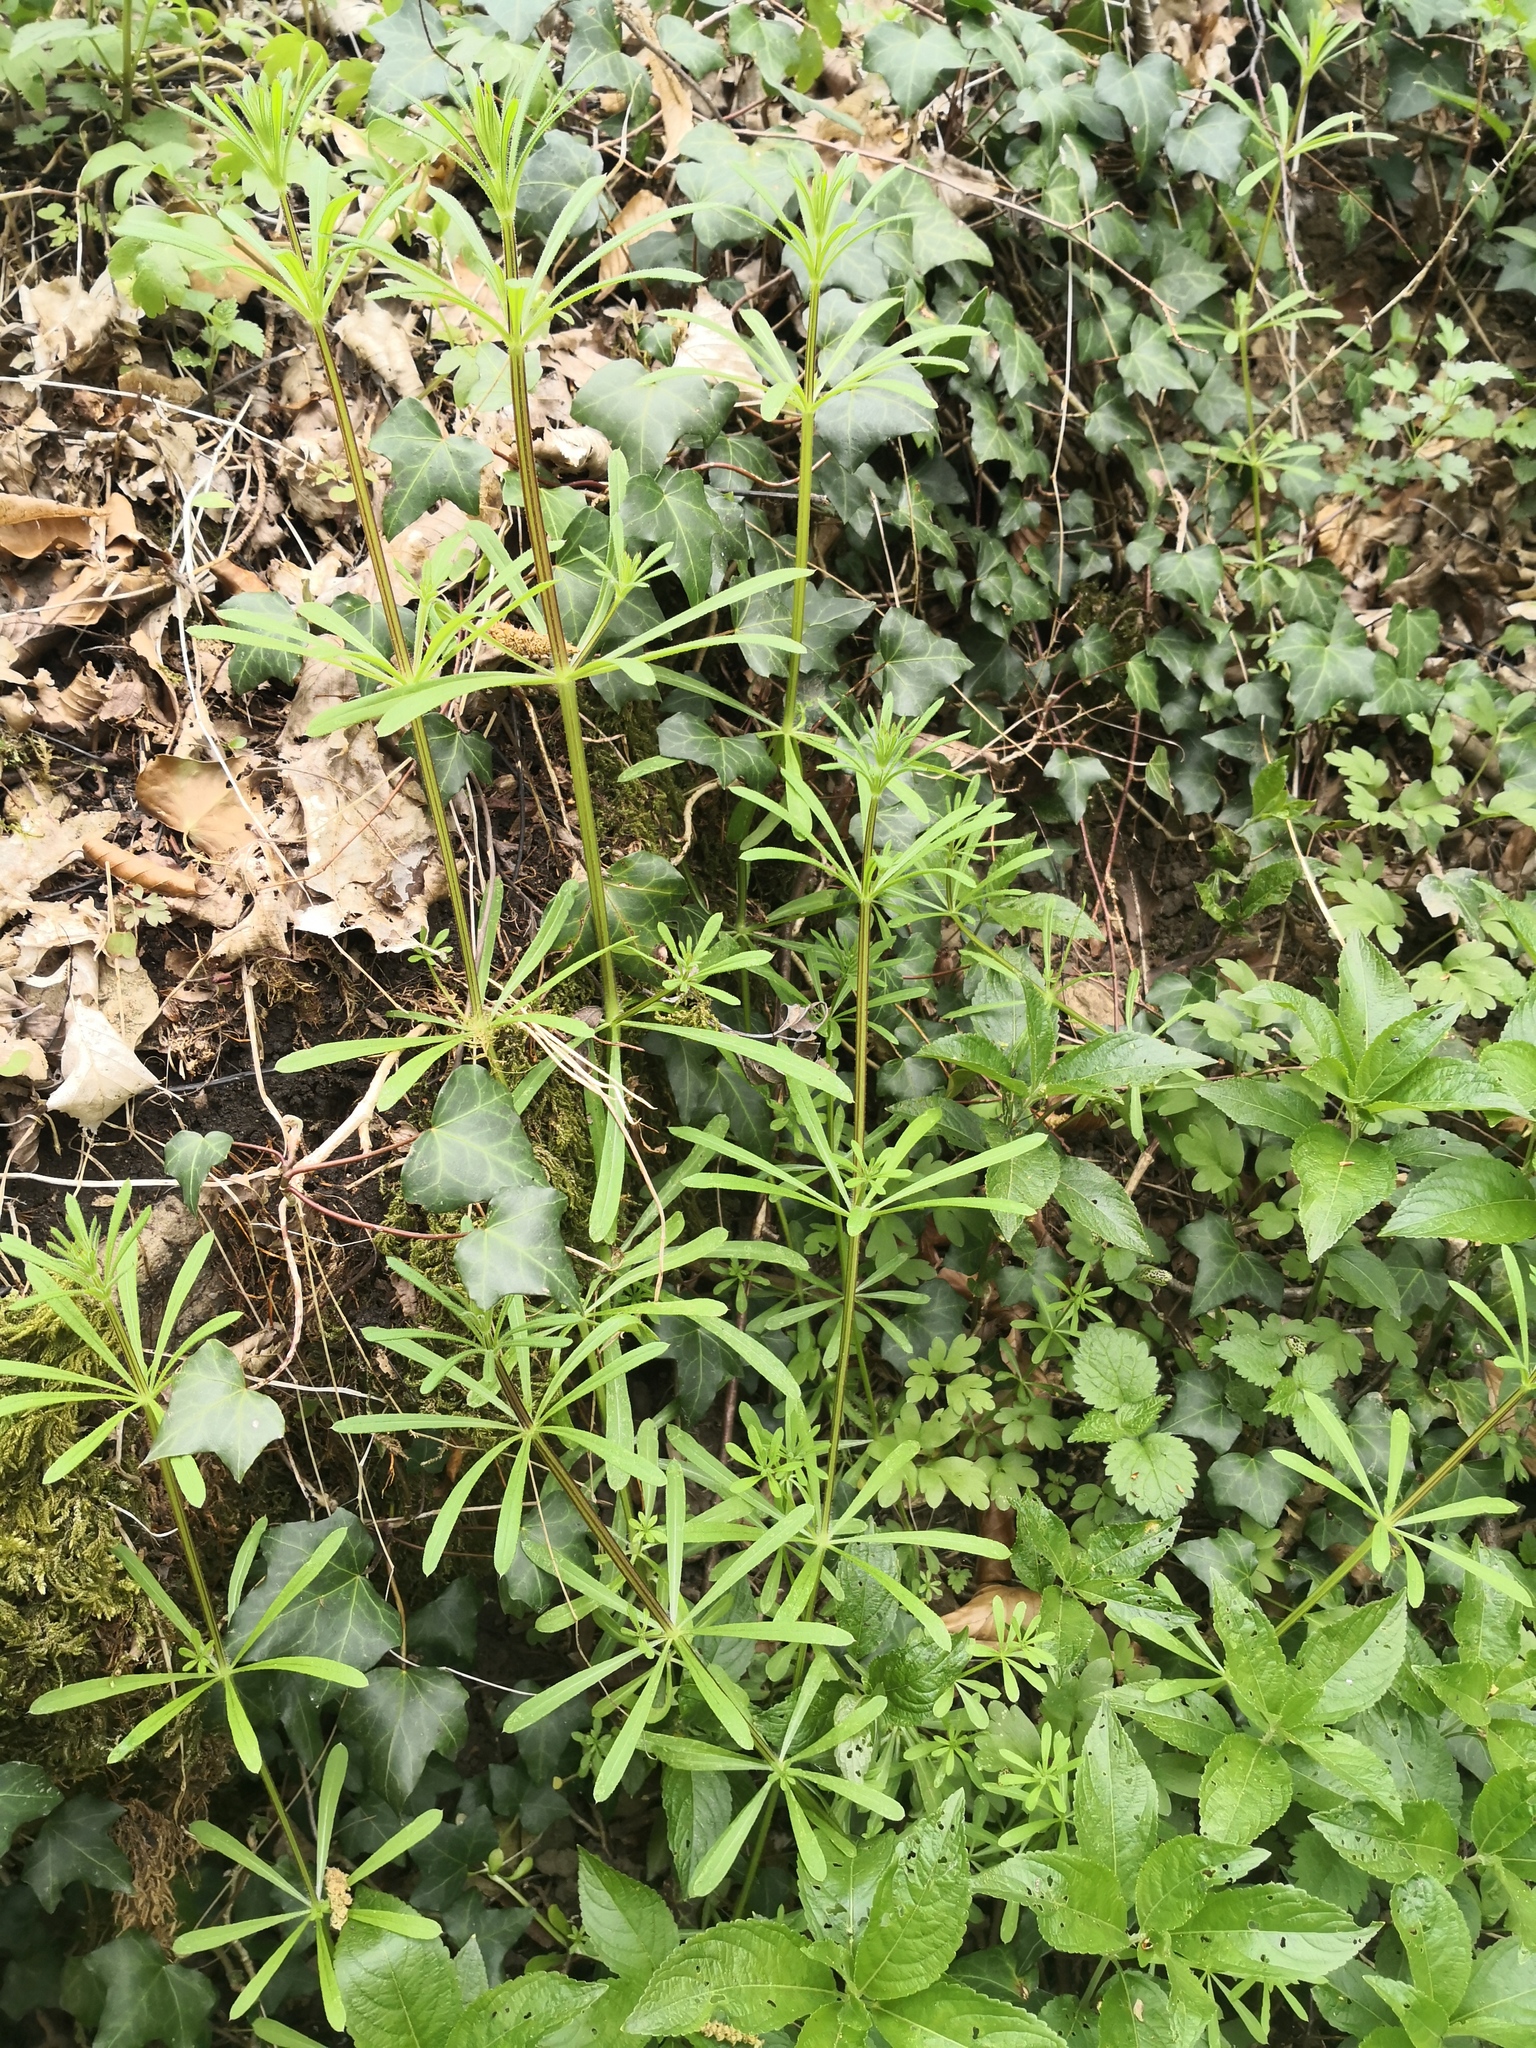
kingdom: Plantae
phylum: Tracheophyta
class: Magnoliopsida
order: Gentianales
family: Rubiaceae
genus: Galium
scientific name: Galium aparine
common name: Cleavers
